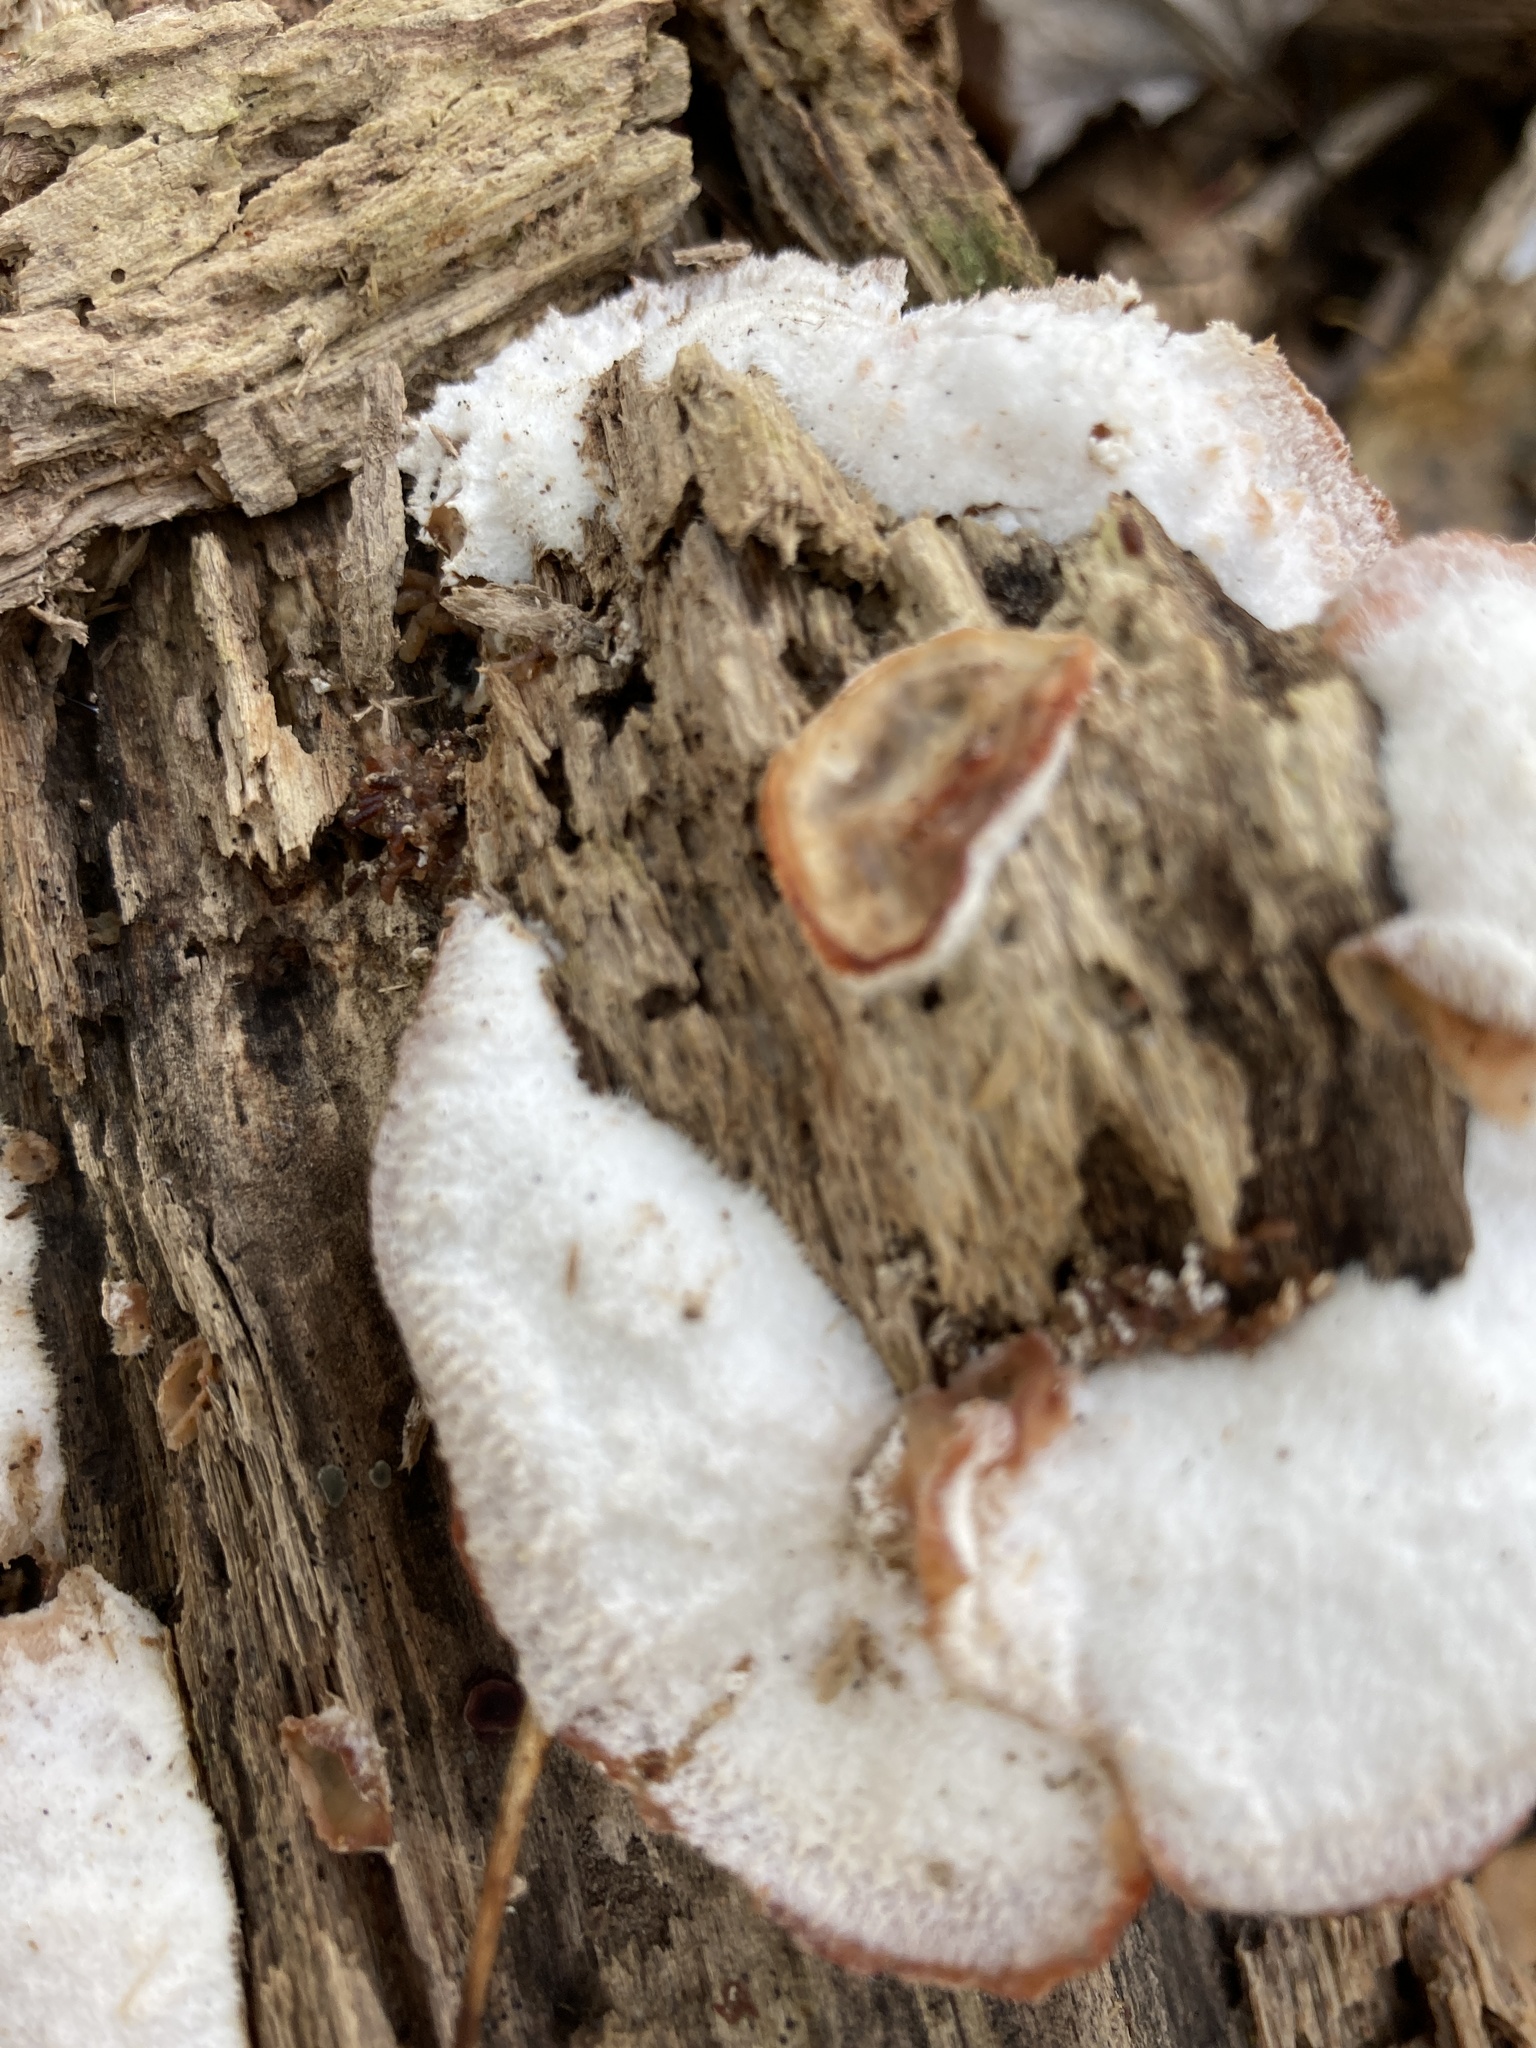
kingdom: Fungi
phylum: Basidiomycota
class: Agaricomycetes
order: Polyporales
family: Meruliaceae
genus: Phlebia
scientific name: Phlebia tremellosa
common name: Jelly rot
